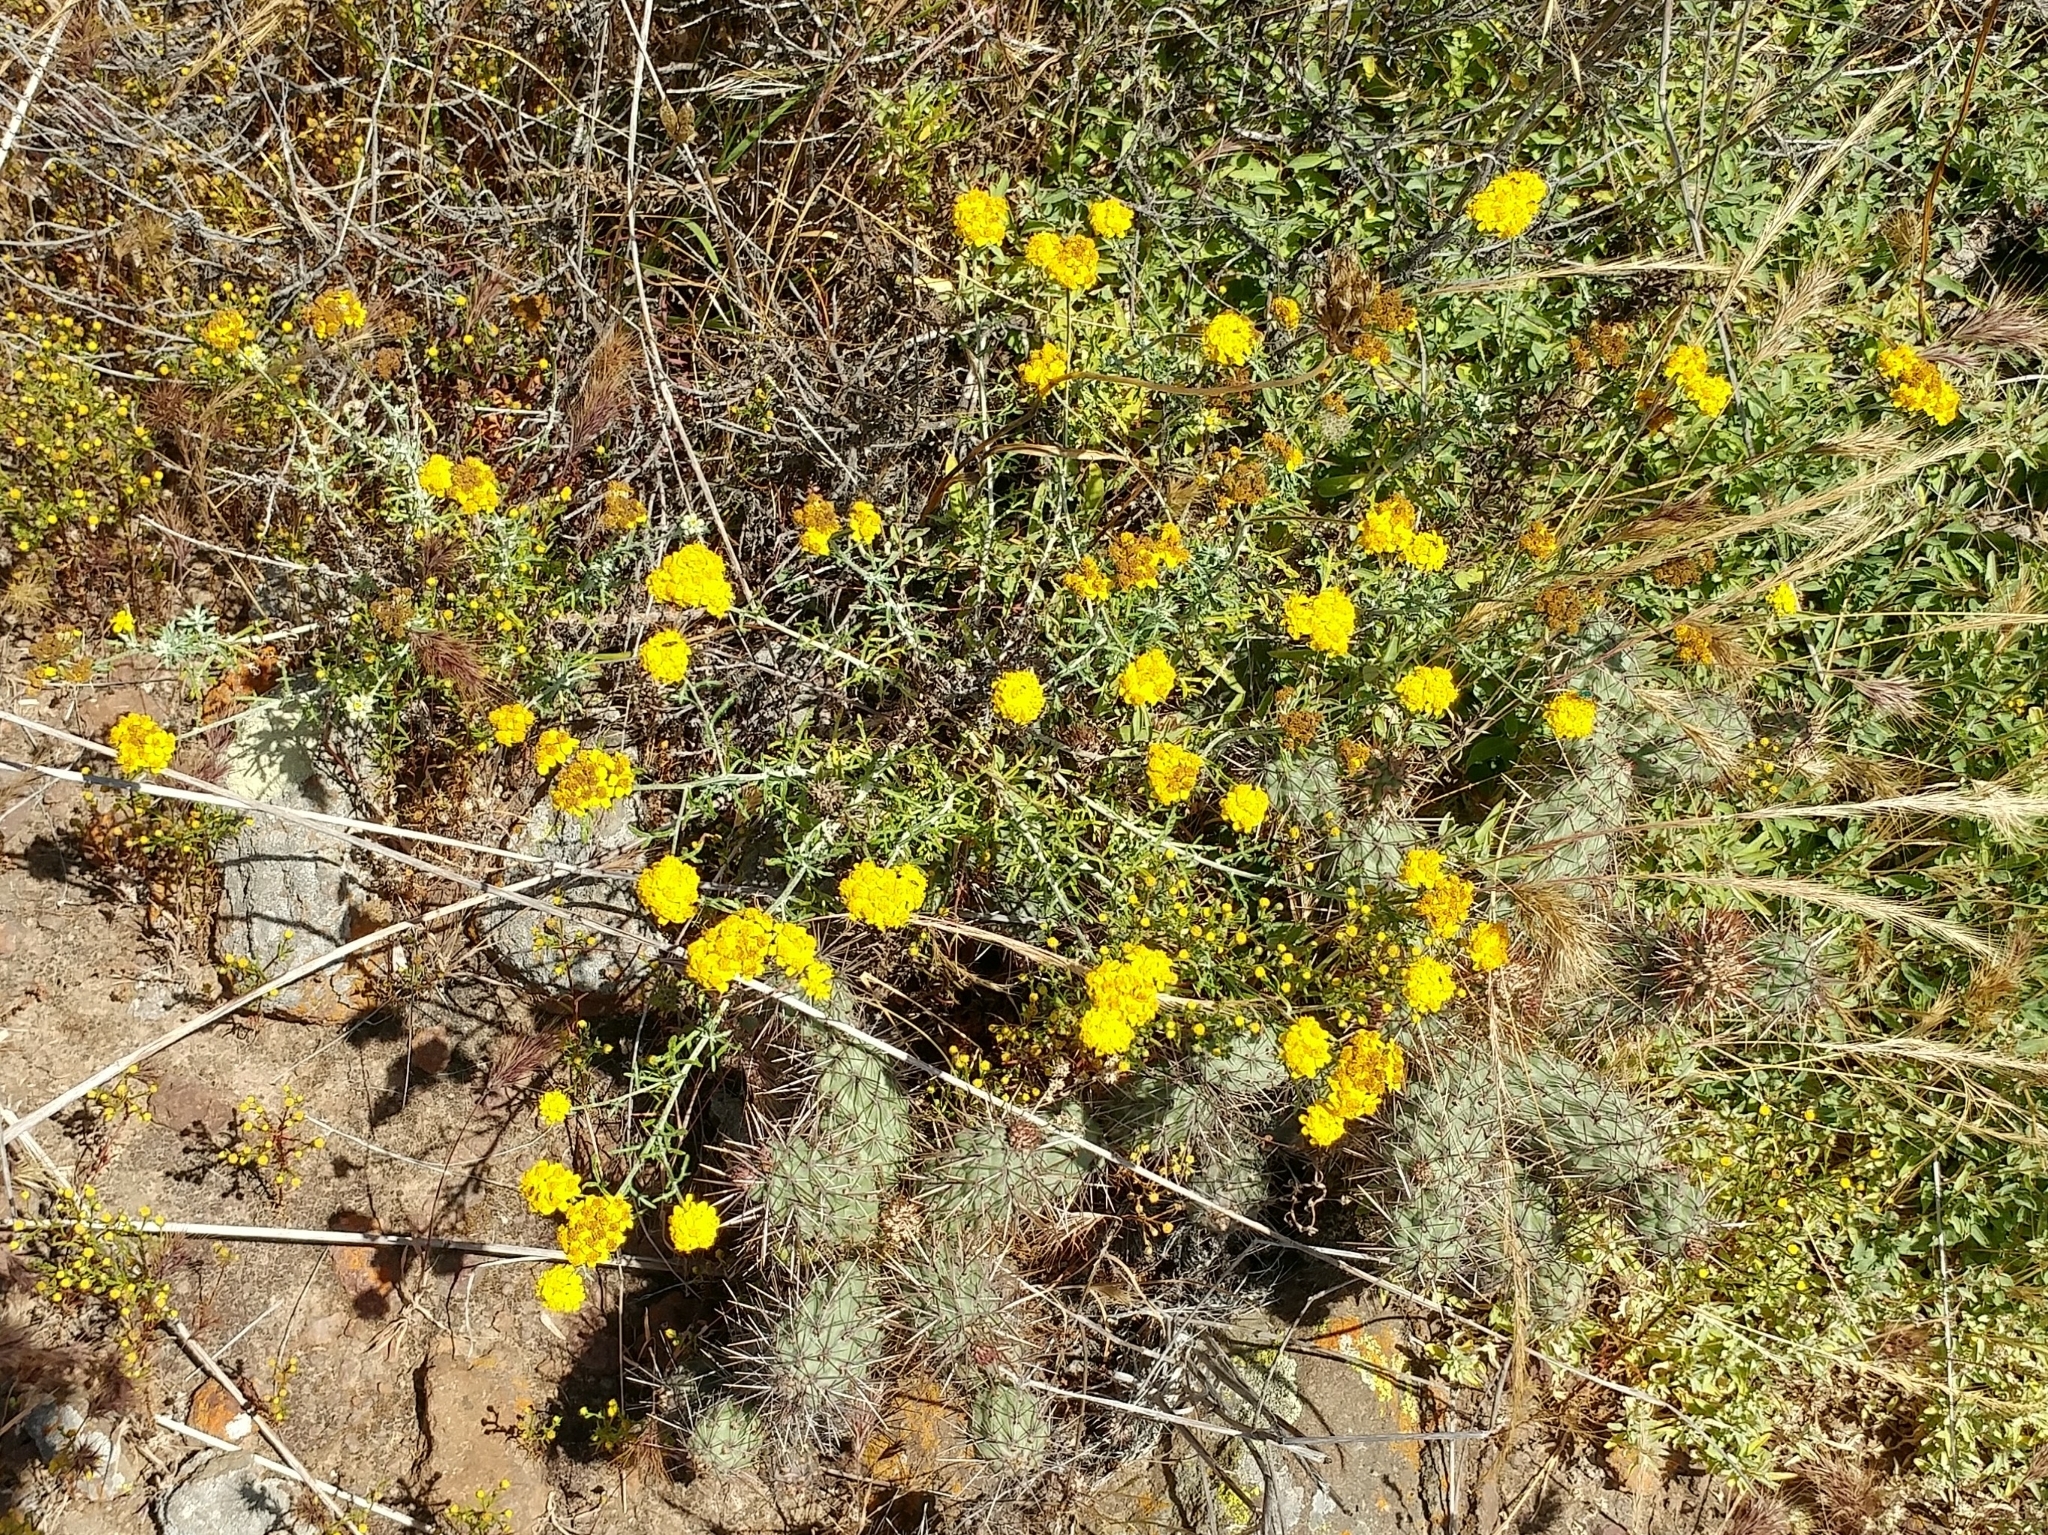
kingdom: Plantae
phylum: Tracheophyta
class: Magnoliopsida
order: Asterales
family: Asteraceae
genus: Eriophyllum
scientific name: Eriophyllum confertiflorum
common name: Golden-yarrow
